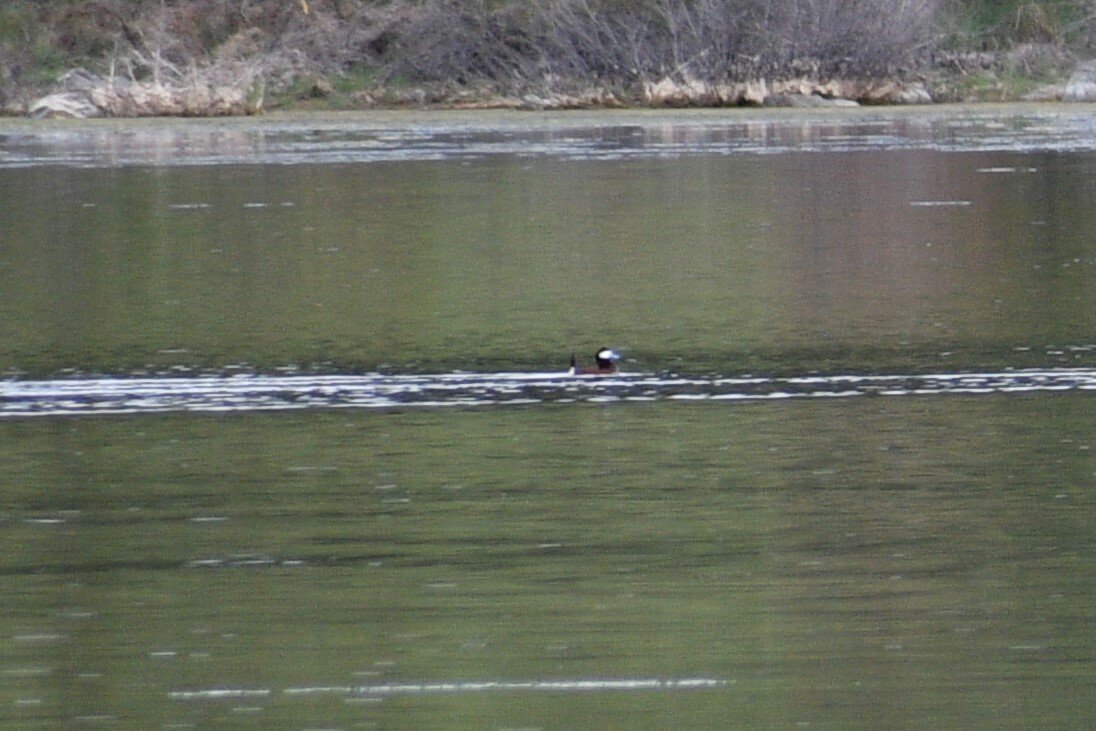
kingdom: Animalia
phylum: Chordata
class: Aves
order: Anseriformes
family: Anatidae
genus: Oxyura
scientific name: Oxyura jamaicensis
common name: Ruddy duck
